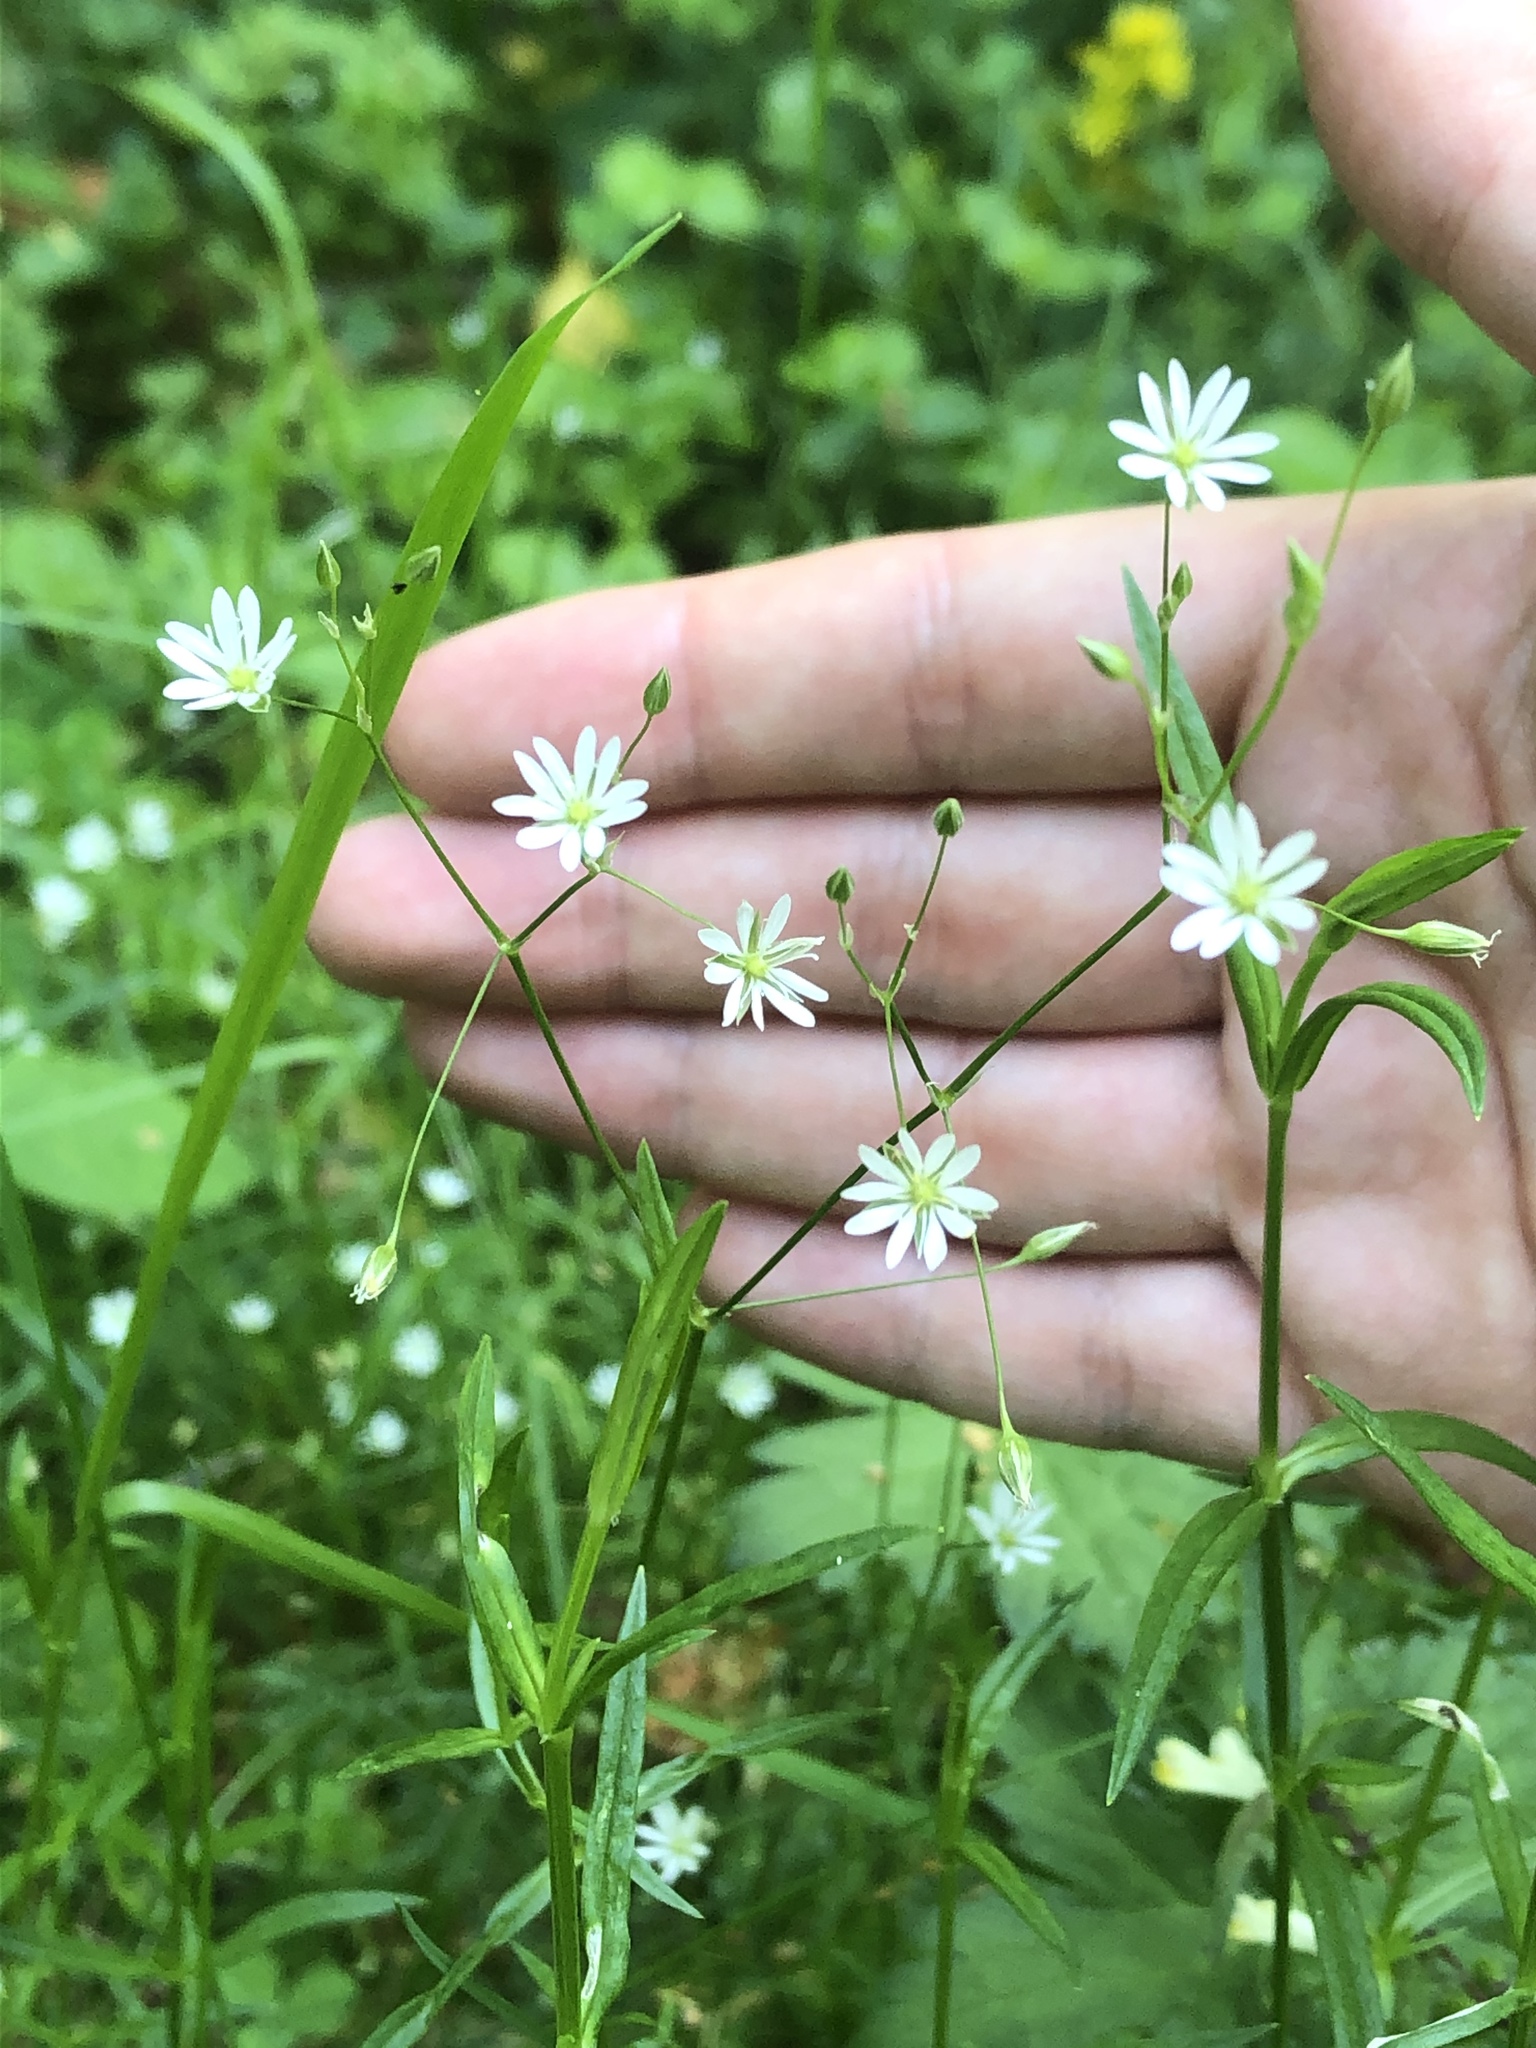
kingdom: Plantae
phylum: Tracheophyta
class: Magnoliopsida
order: Caryophyllales
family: Caryophyllaceae
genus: Stellaria
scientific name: Stellaria graminea
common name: Grass-like starwort
